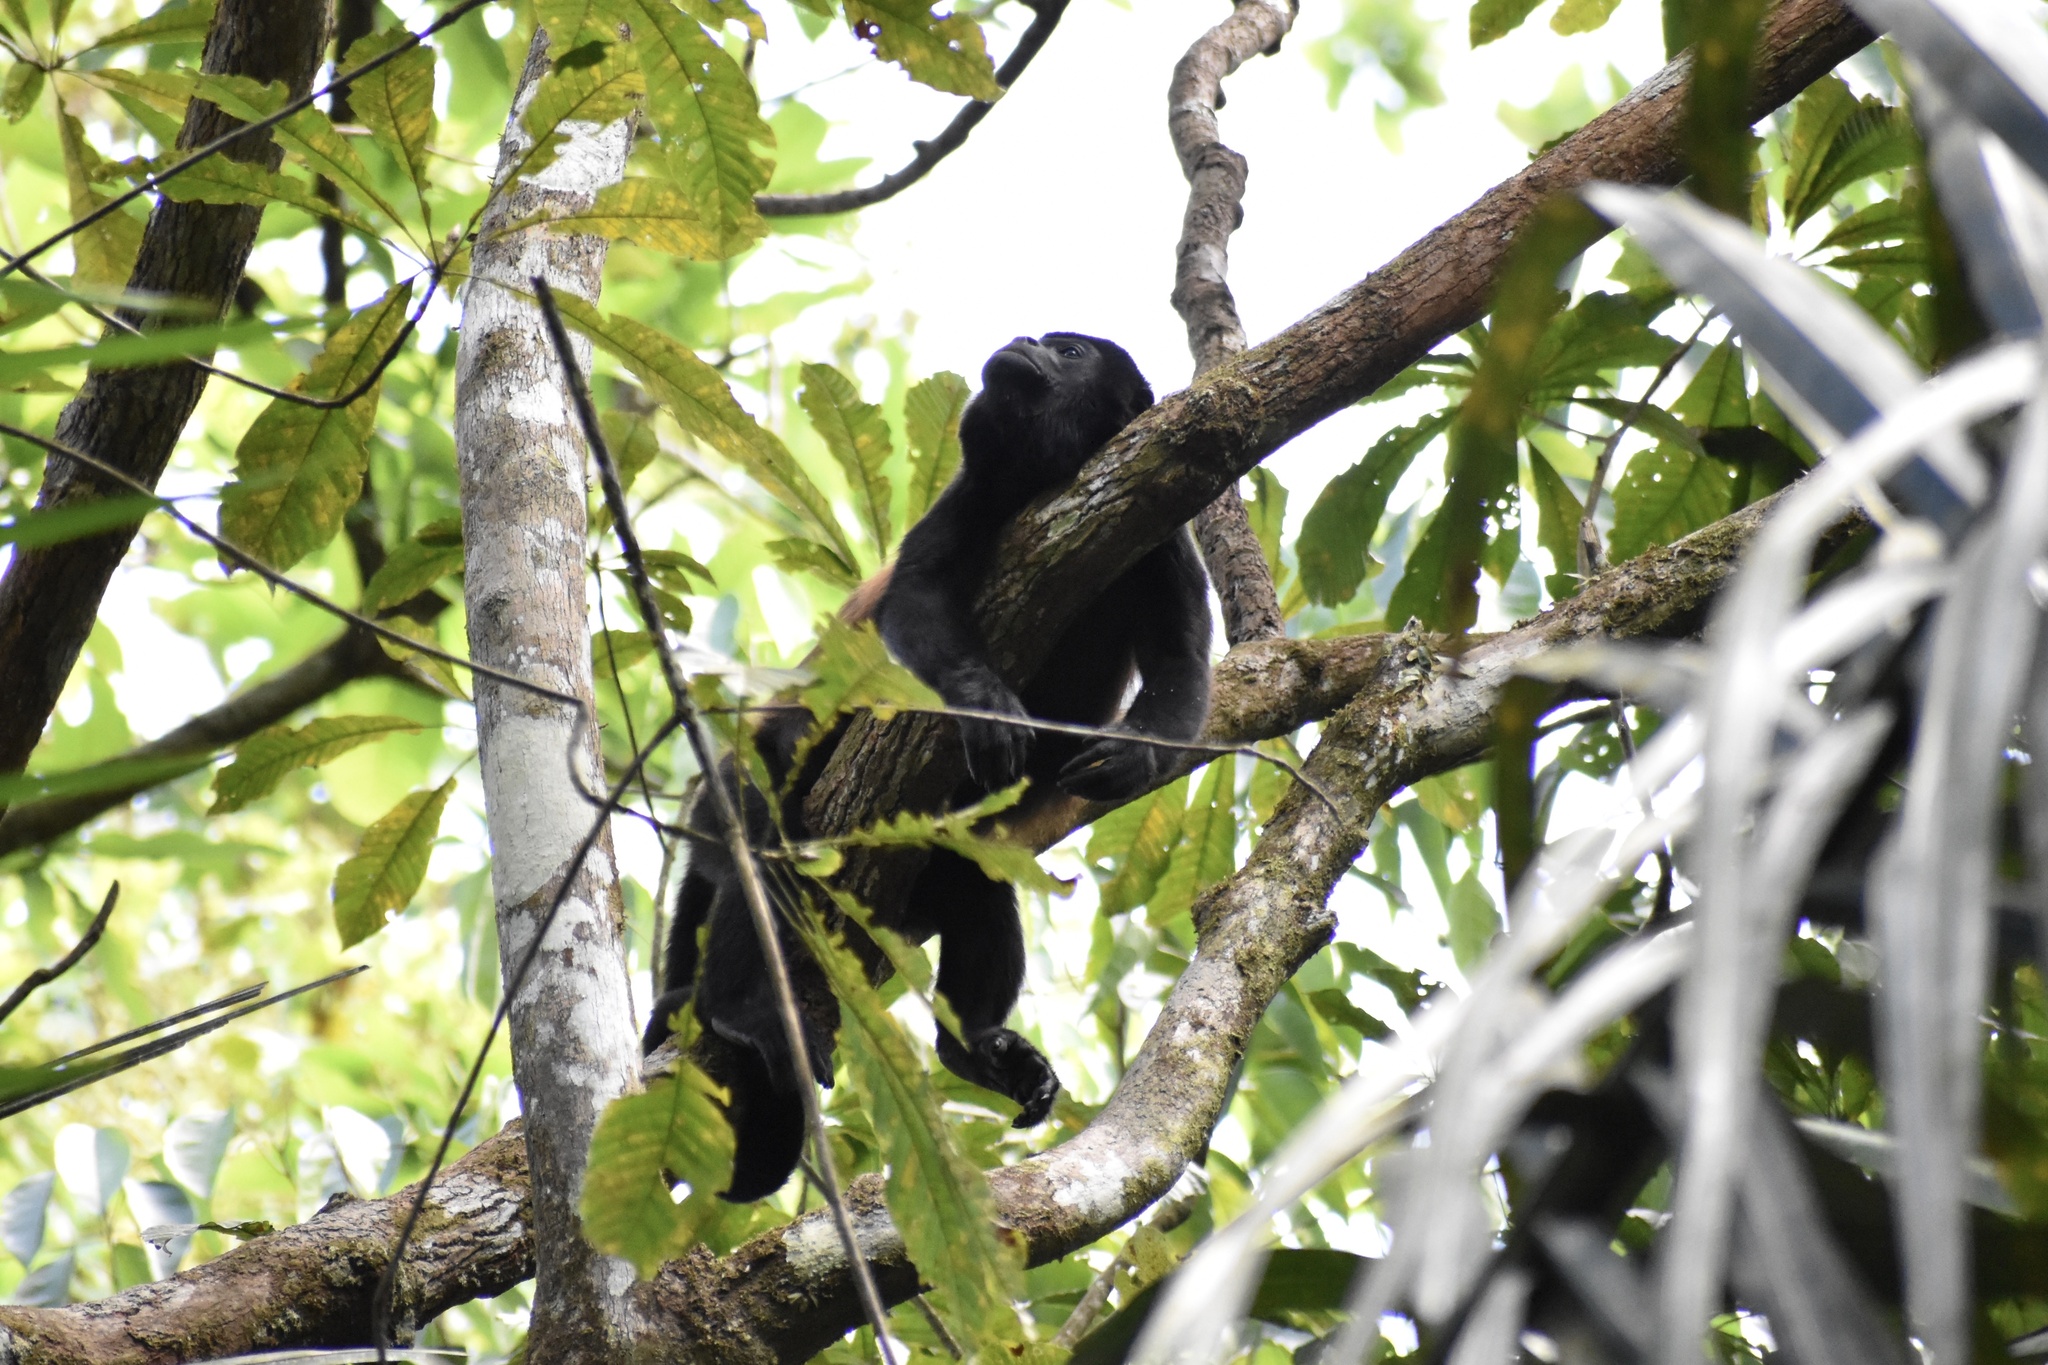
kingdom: Animalia
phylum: Chordata
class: Mammalia
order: Primates
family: Atelidae
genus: Alouatta
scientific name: Alouatta palliata
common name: Mantled howler
